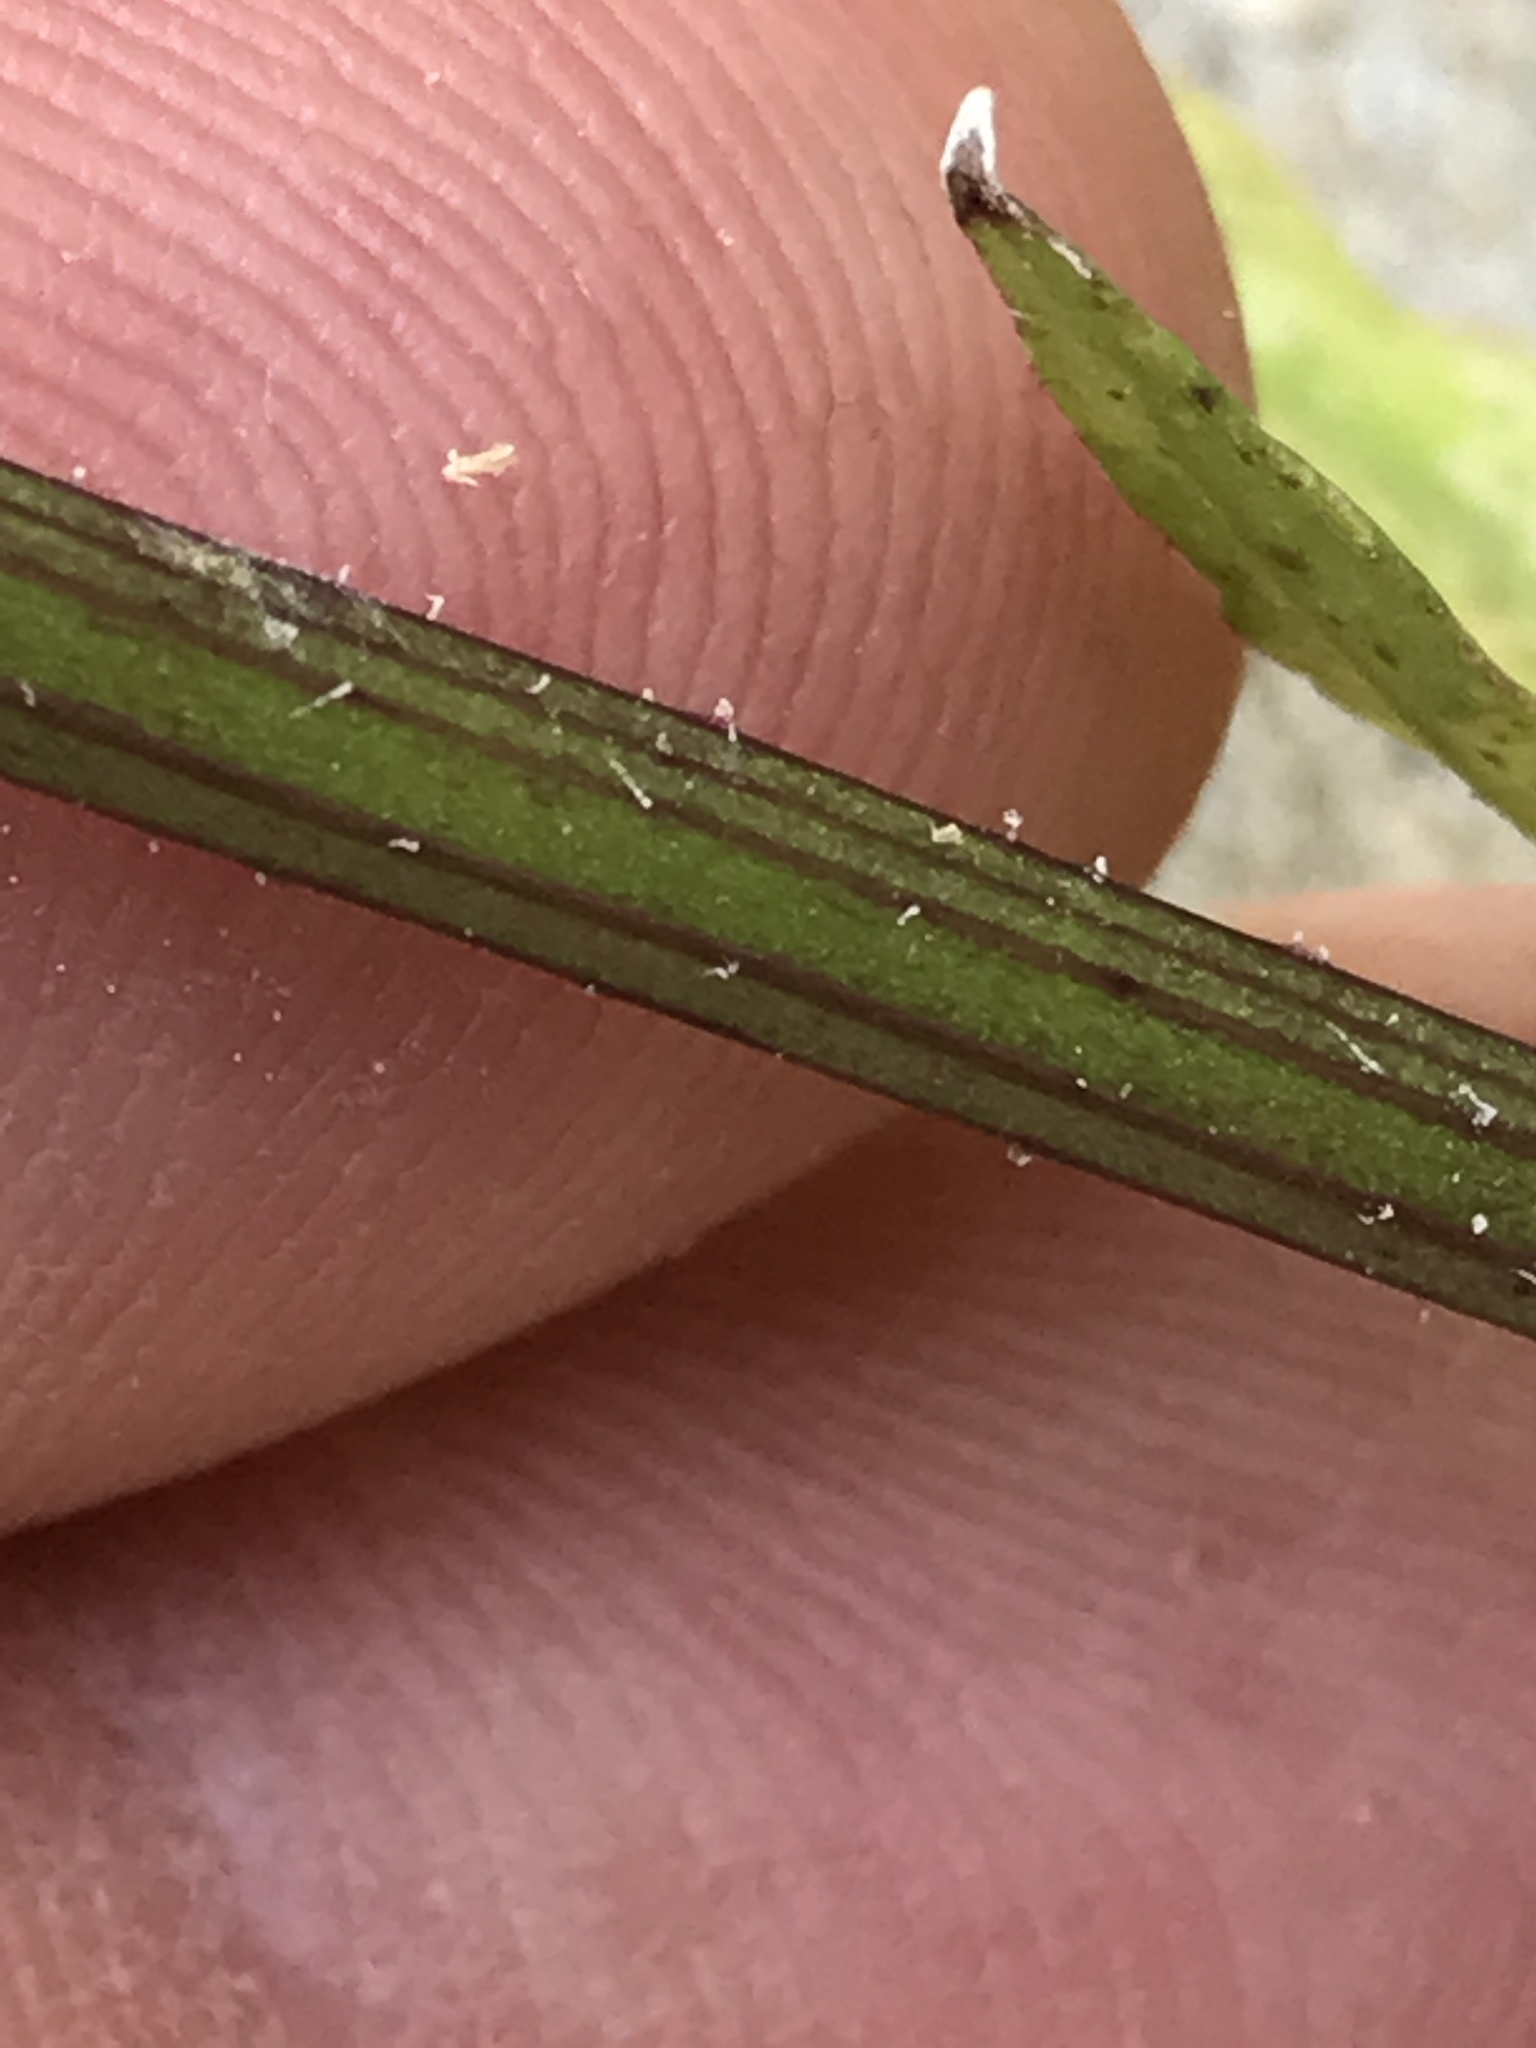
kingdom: Plantae
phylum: Tracheophyta
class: Magnoliopsida
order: Asterales
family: Asteraceae
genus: Pyrrhopappus
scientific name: Pyrrhopappus pauciflorus
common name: Texas false dandelion
